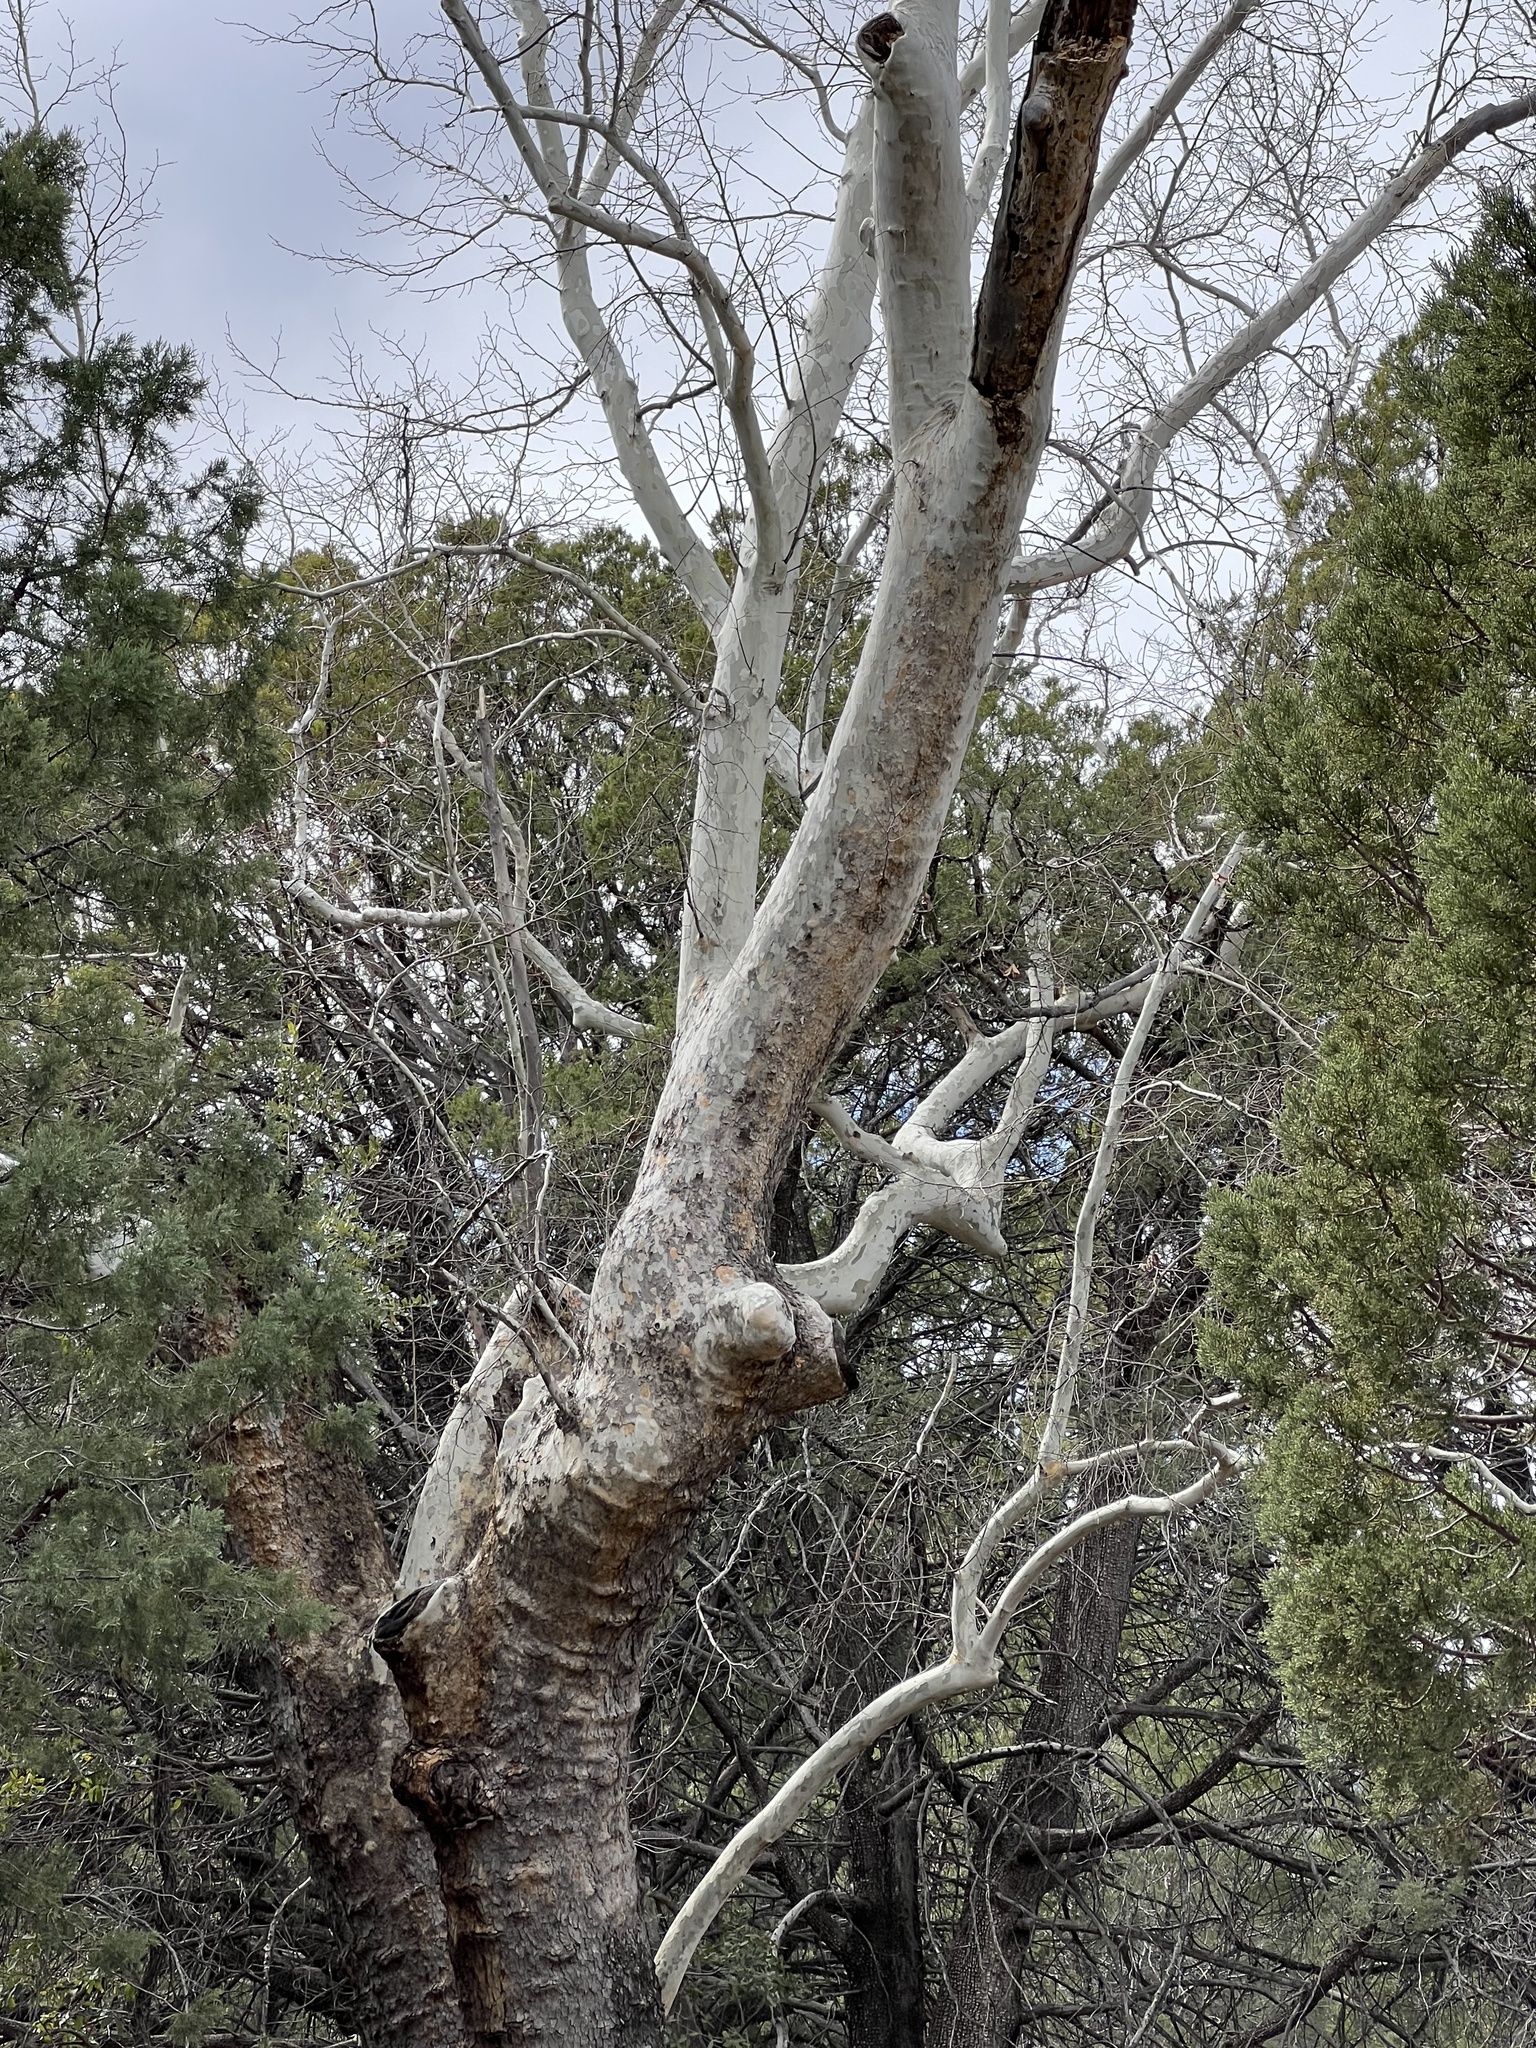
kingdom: Plantae
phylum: Tracheophyta
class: Magnoliopsida
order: Proteales
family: Platanaceae
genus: Platanus
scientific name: Platanus wrightii
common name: Arizona sycamore
